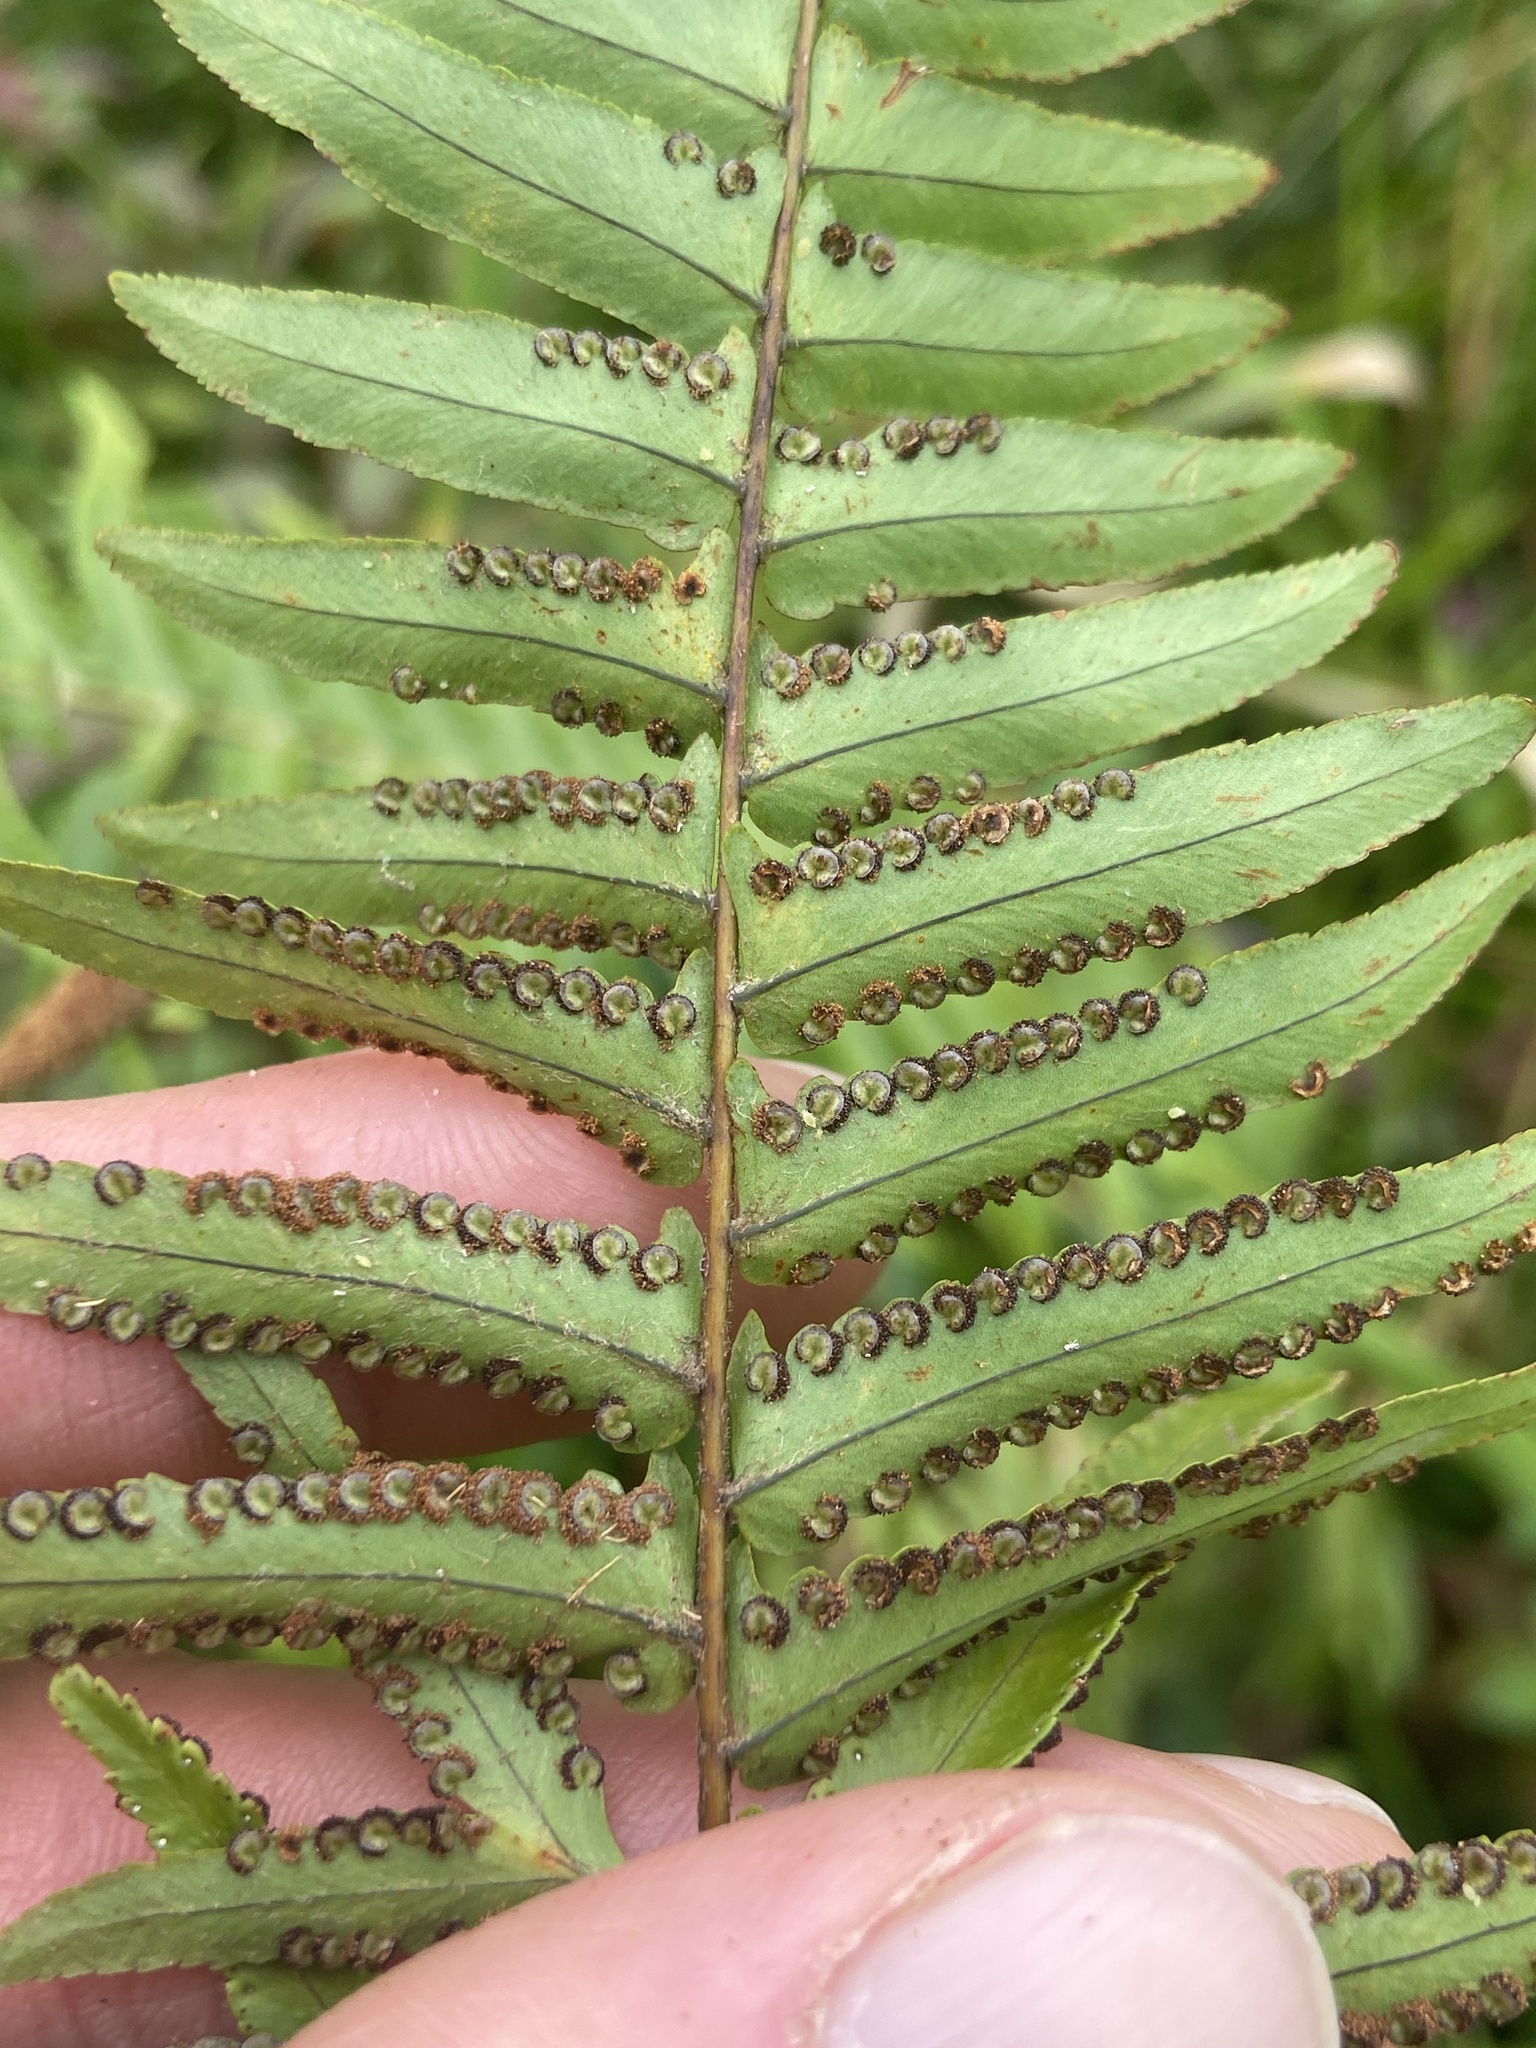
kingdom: Plantae
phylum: Tracheophyta
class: Polypodiopsida
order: Polypodiales
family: Nephrolepidaceae
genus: Nephrolepis
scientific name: Nephrolepis brownii
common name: Asian swordfern
